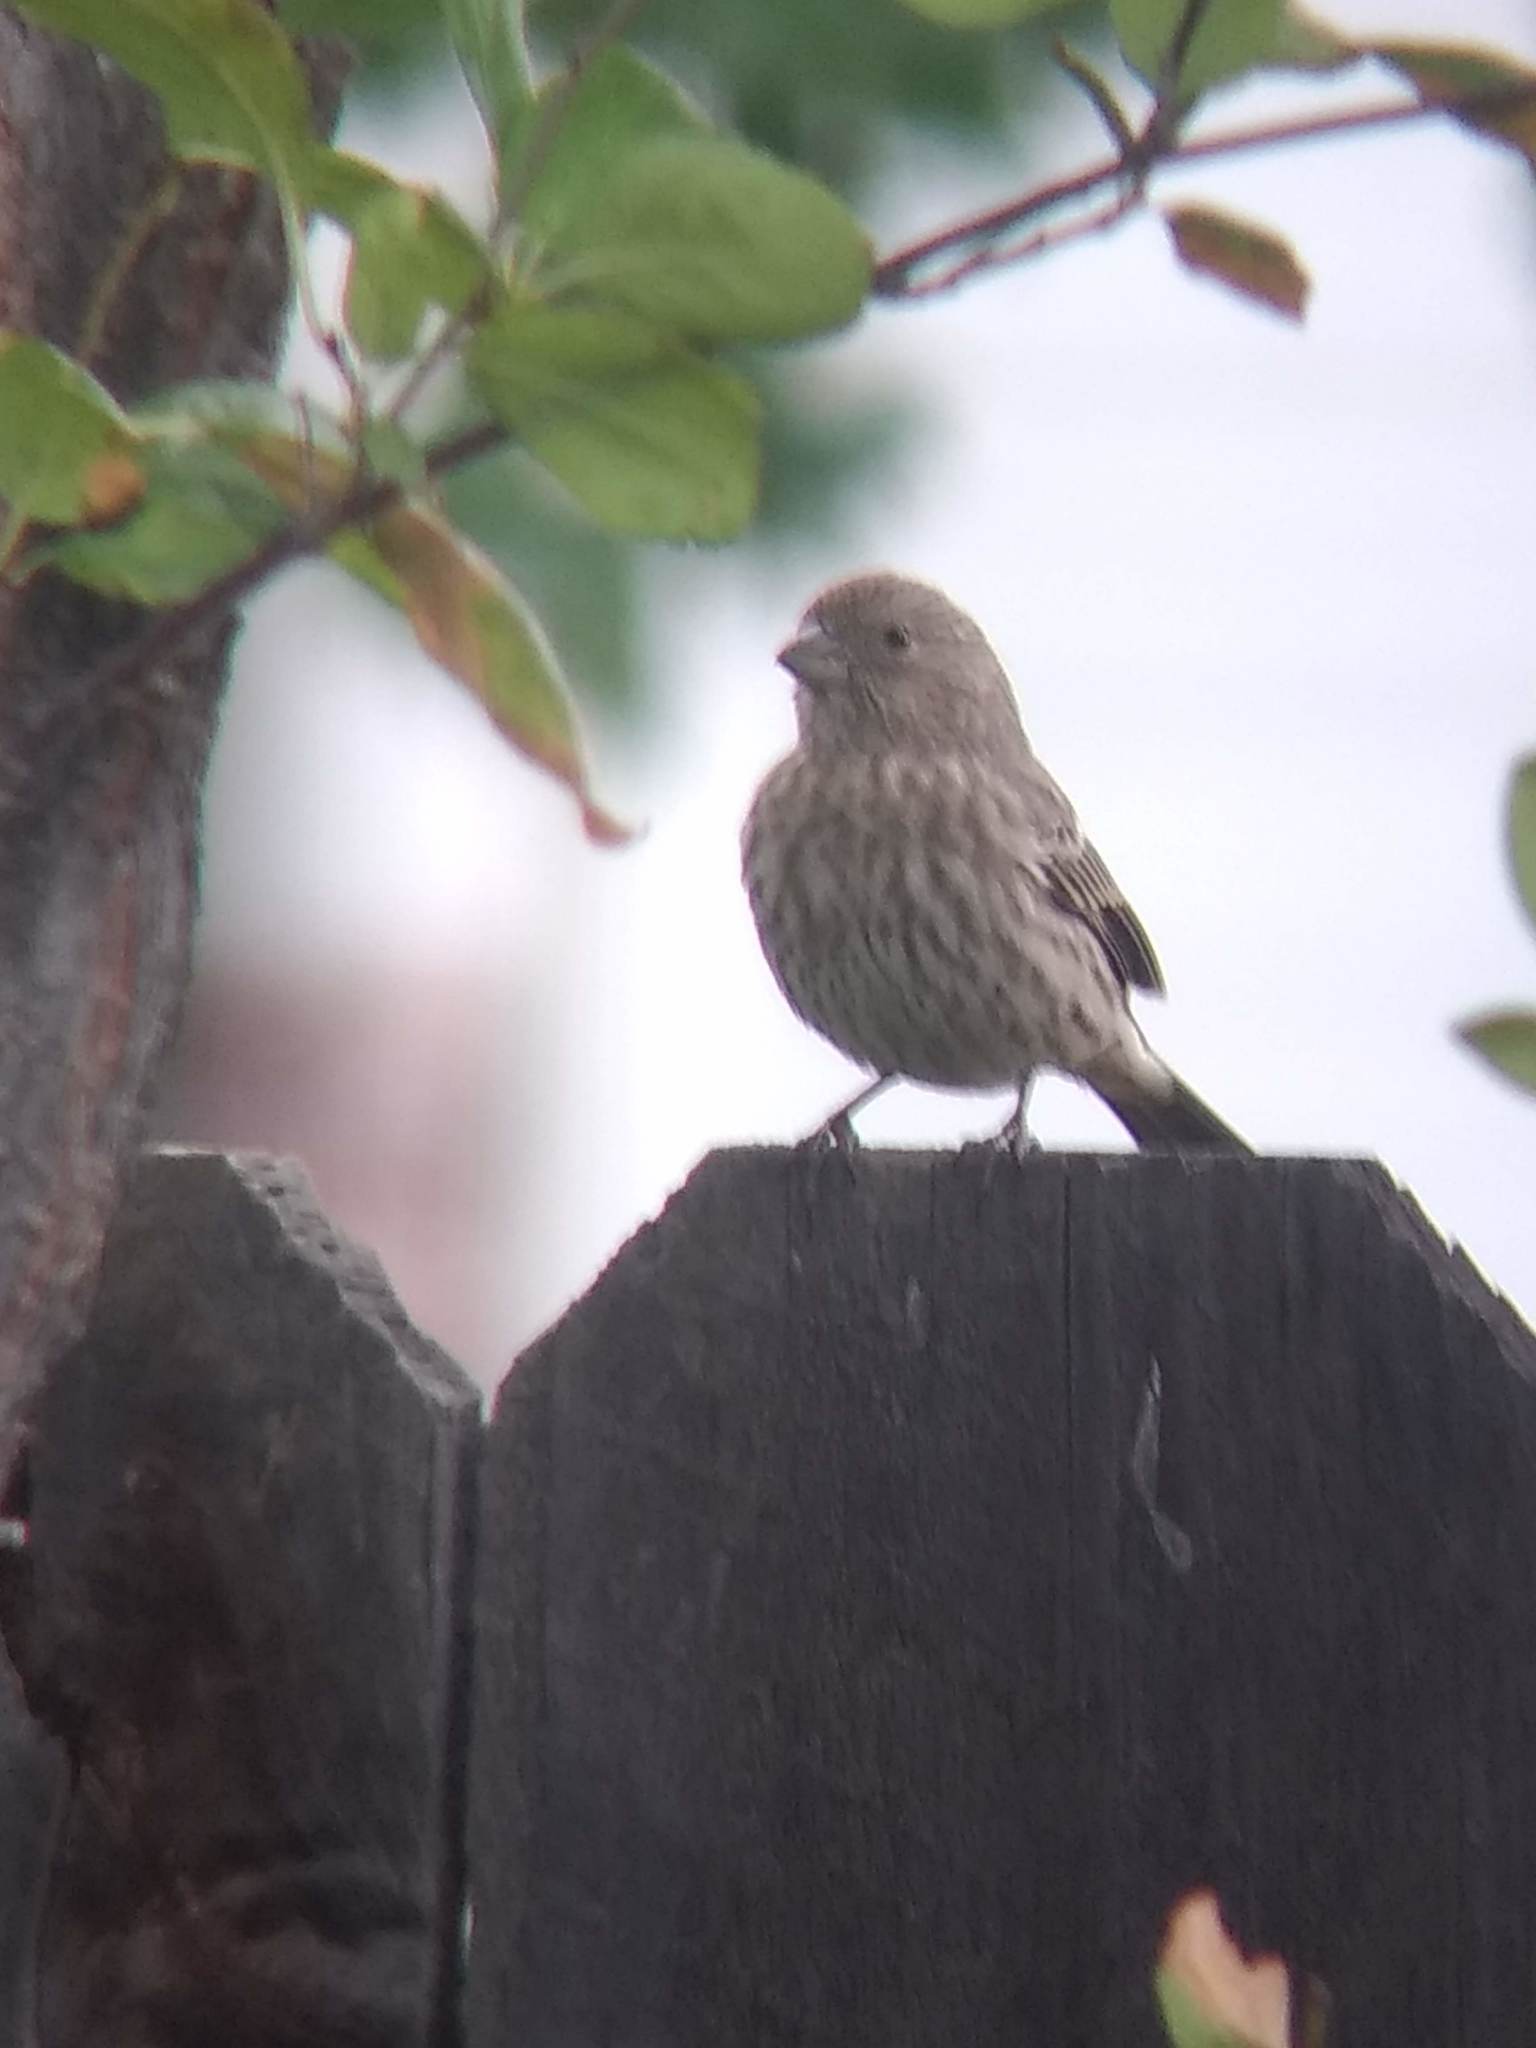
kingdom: Animalia
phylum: Chordata
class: Aves
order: Passeriformes
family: Fringillidae
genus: Haemorhous
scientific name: Haemorhous mexicanus
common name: House finch
